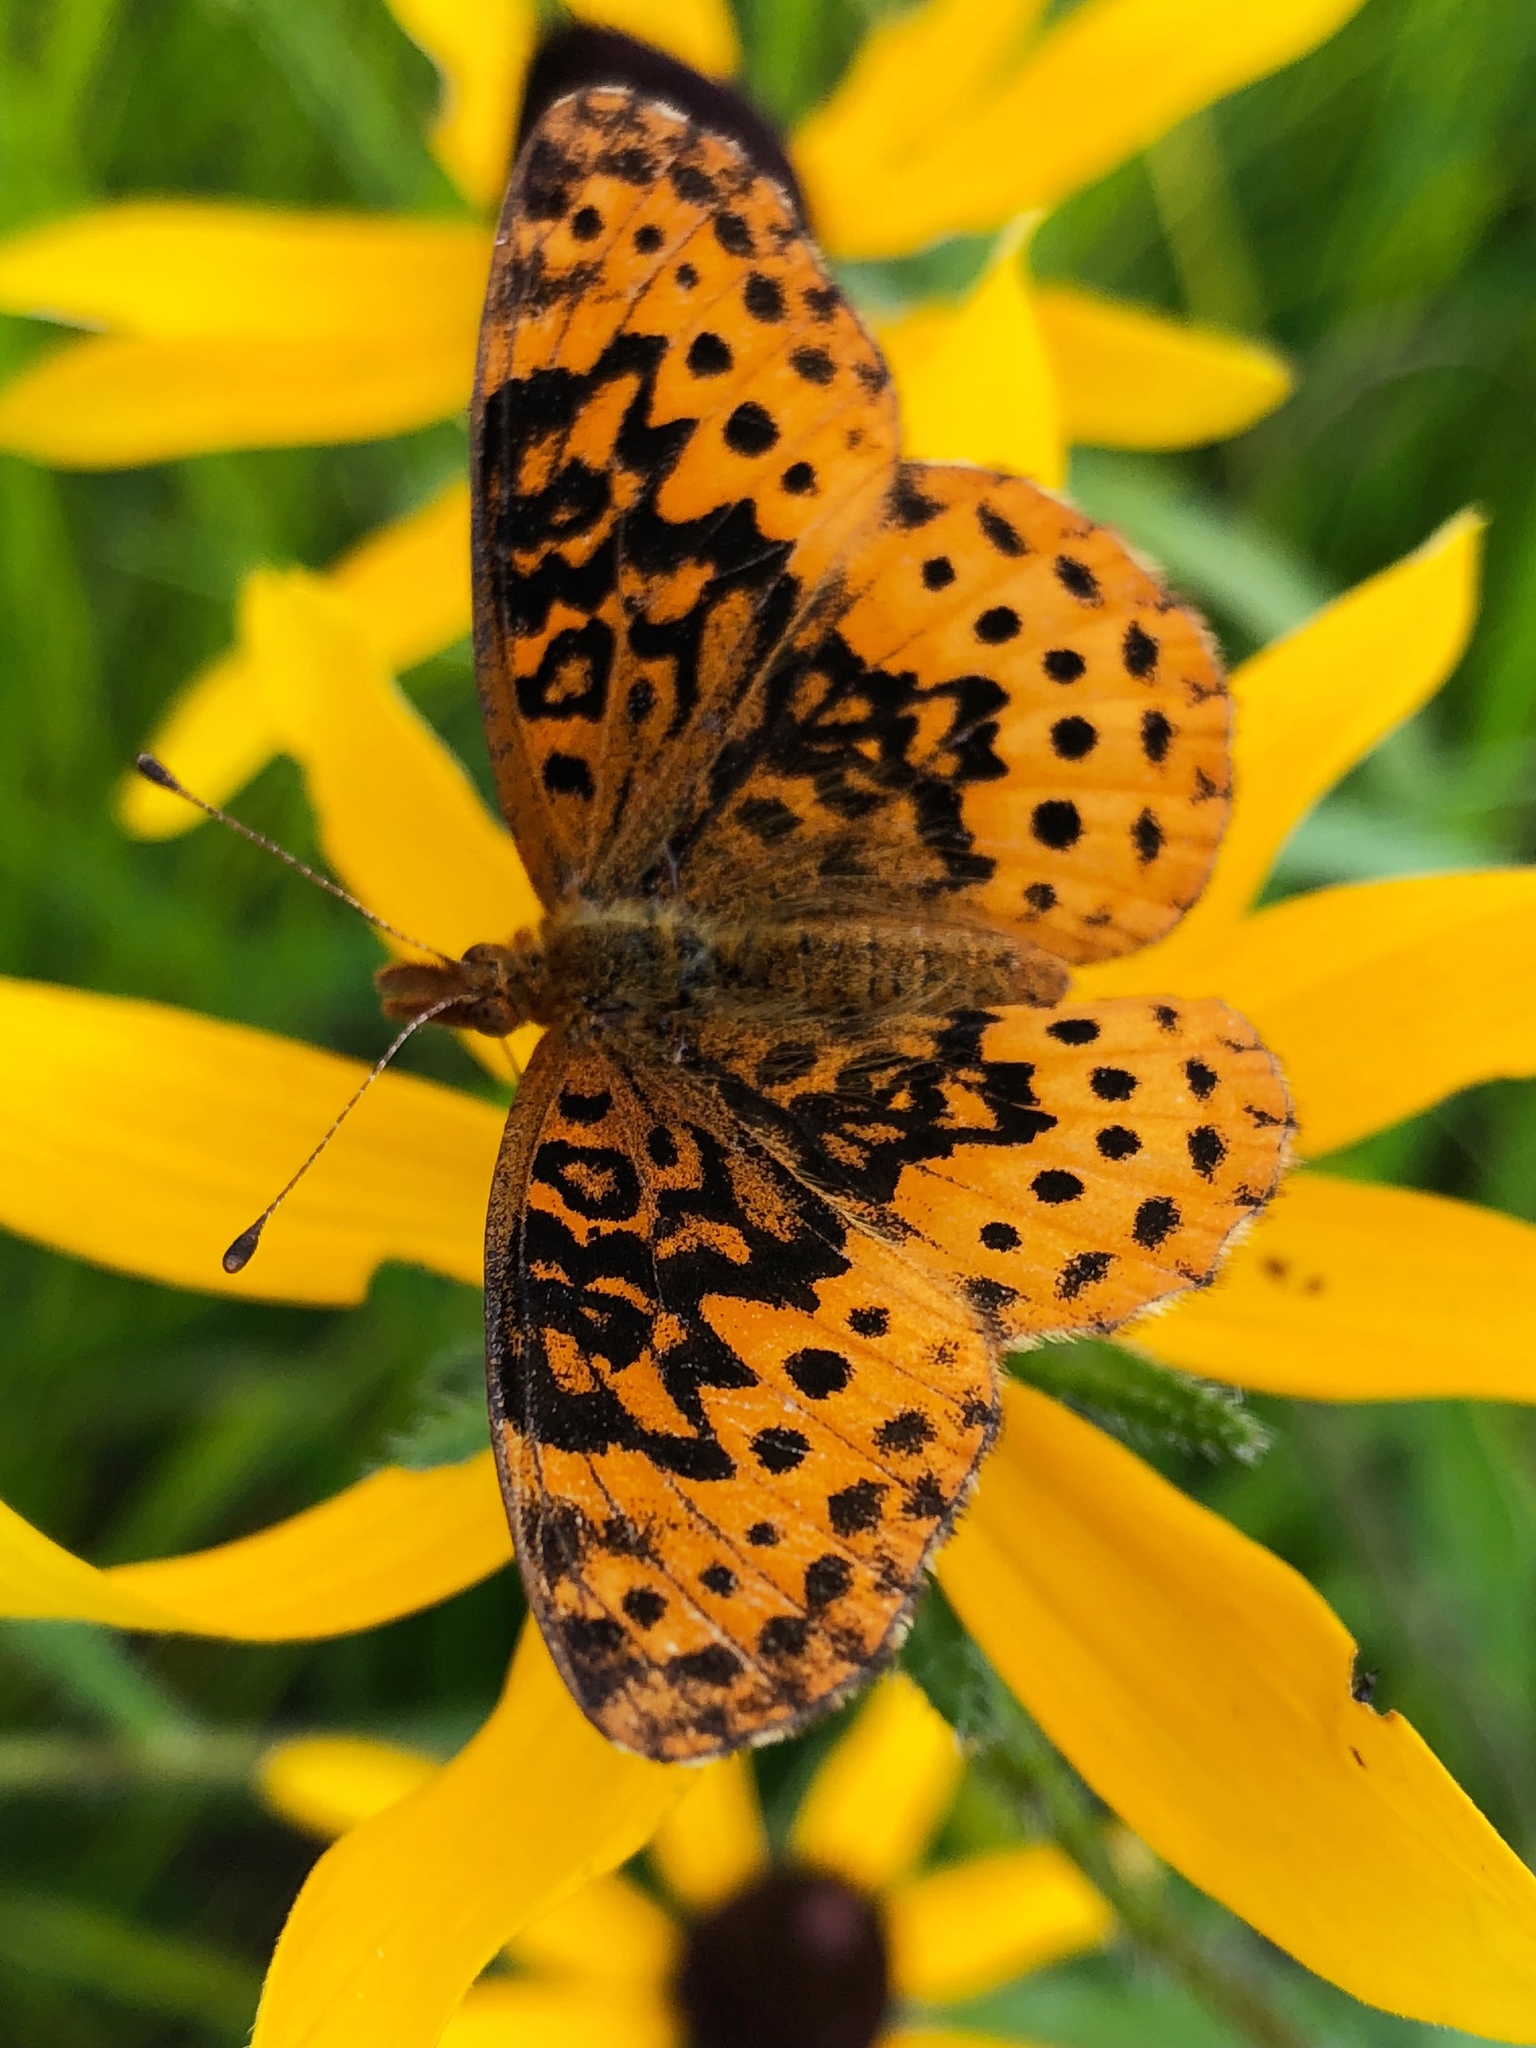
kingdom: Animalia
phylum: Arthropoda
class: Insecta
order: Lepidoptera
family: Nymphalidae
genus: Clossiana
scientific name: Clossiana toddi
